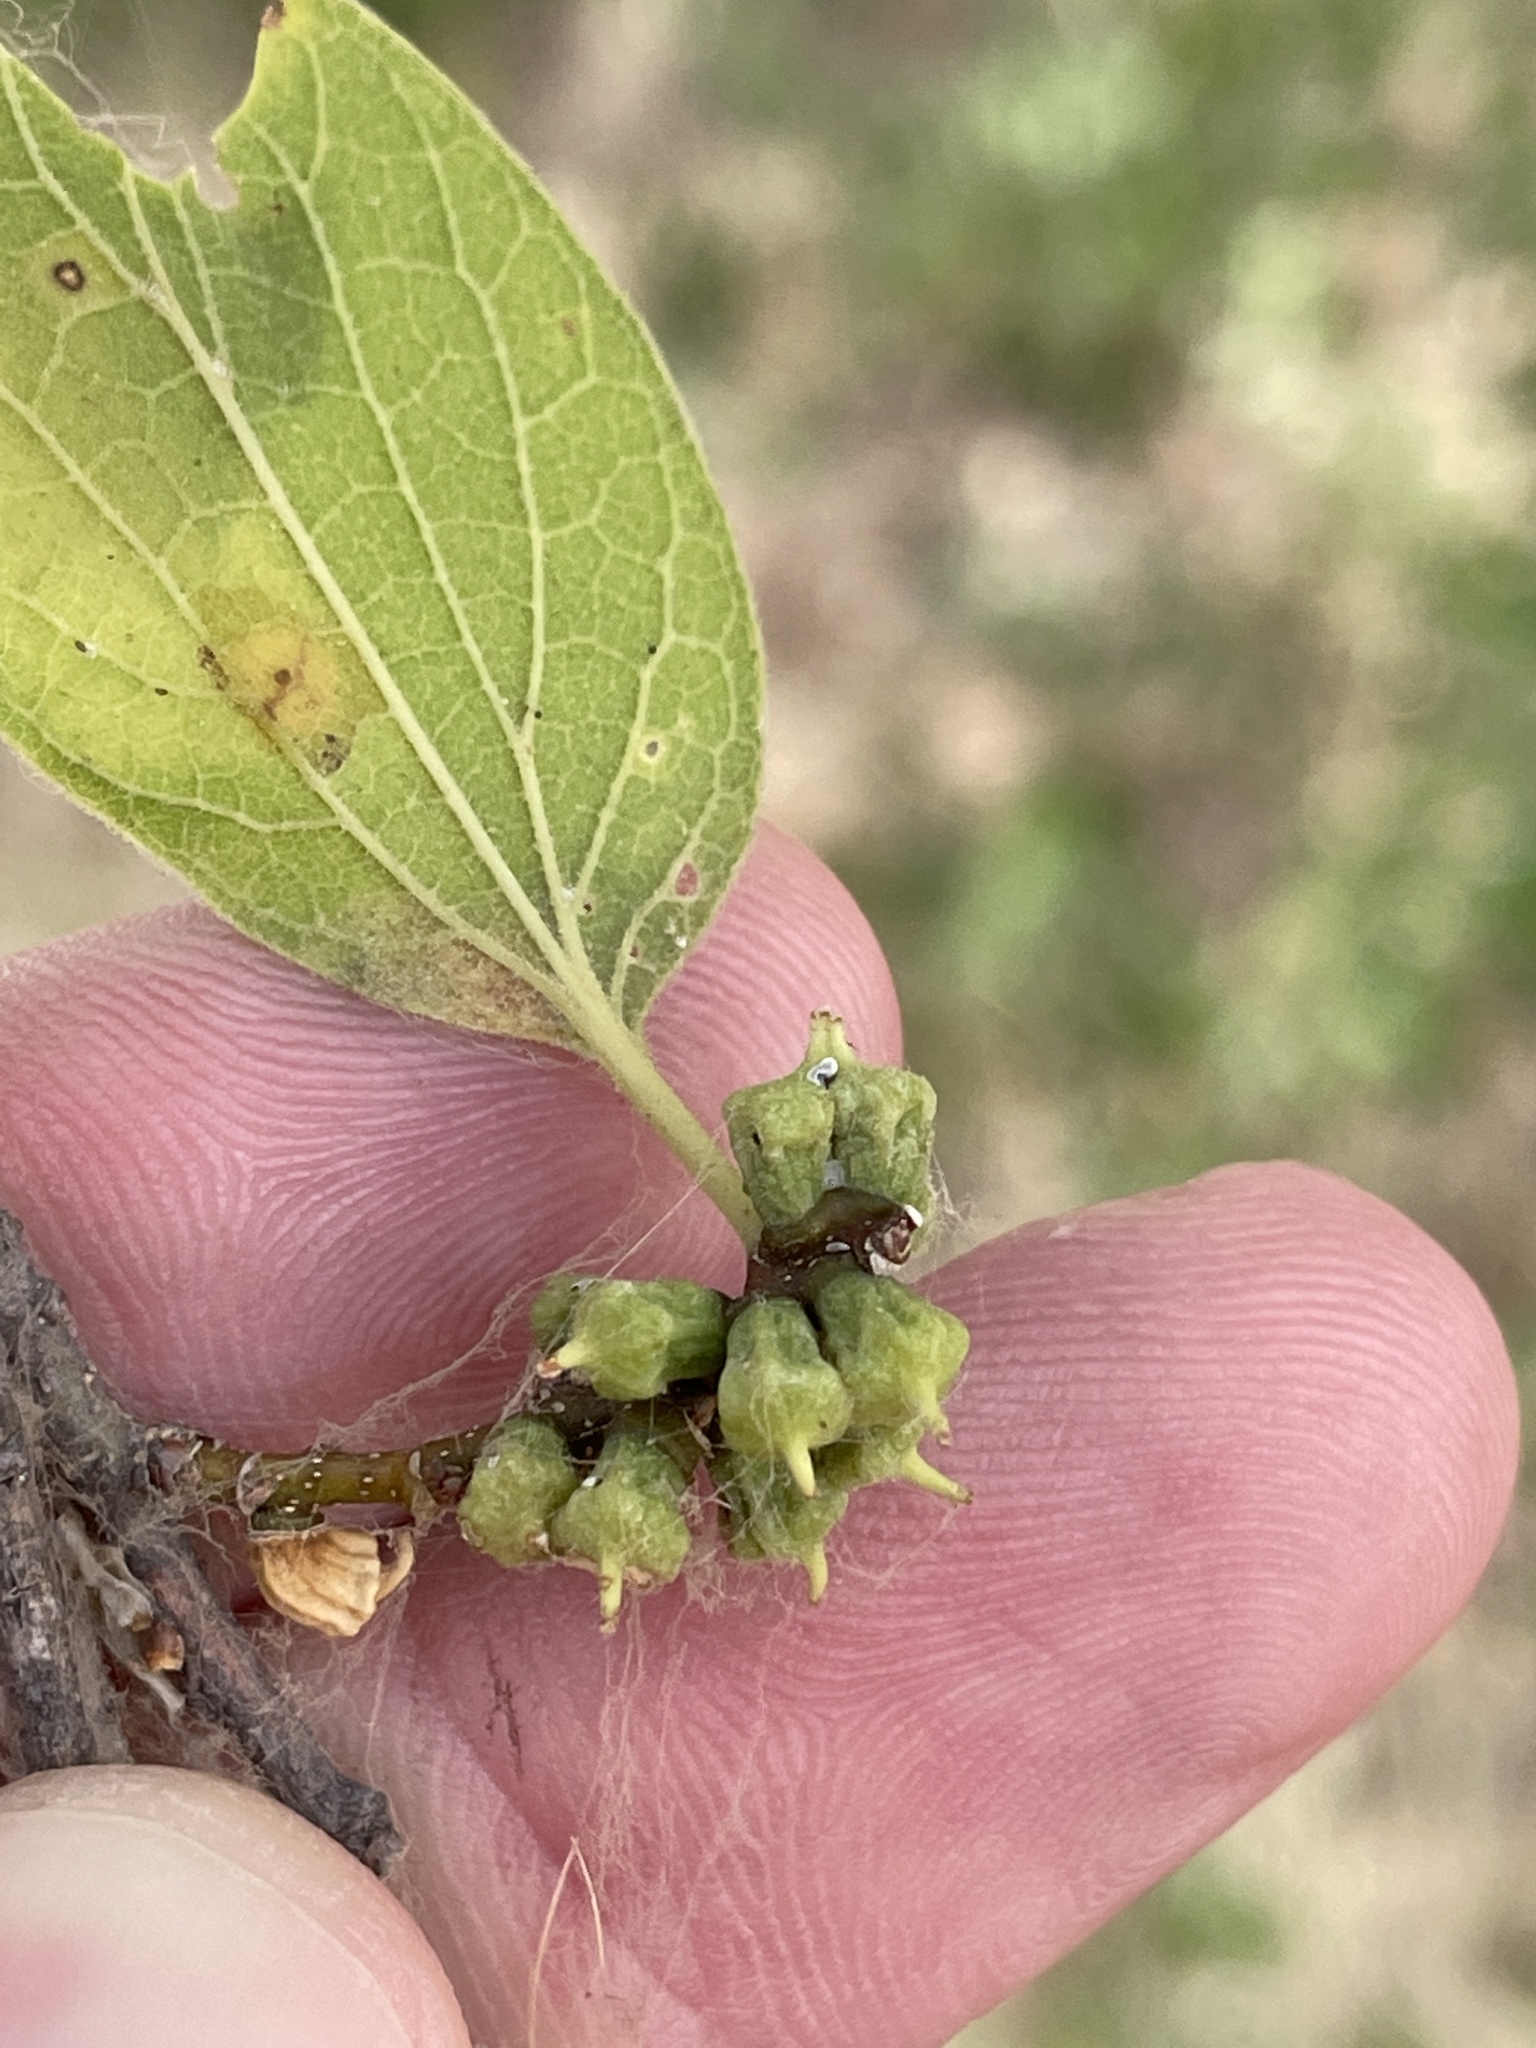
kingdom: Animalia
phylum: Arthropoda
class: Insecta
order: Diptera
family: Cecidomyiidae
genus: Celticecis
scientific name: Celticecis ramicola
